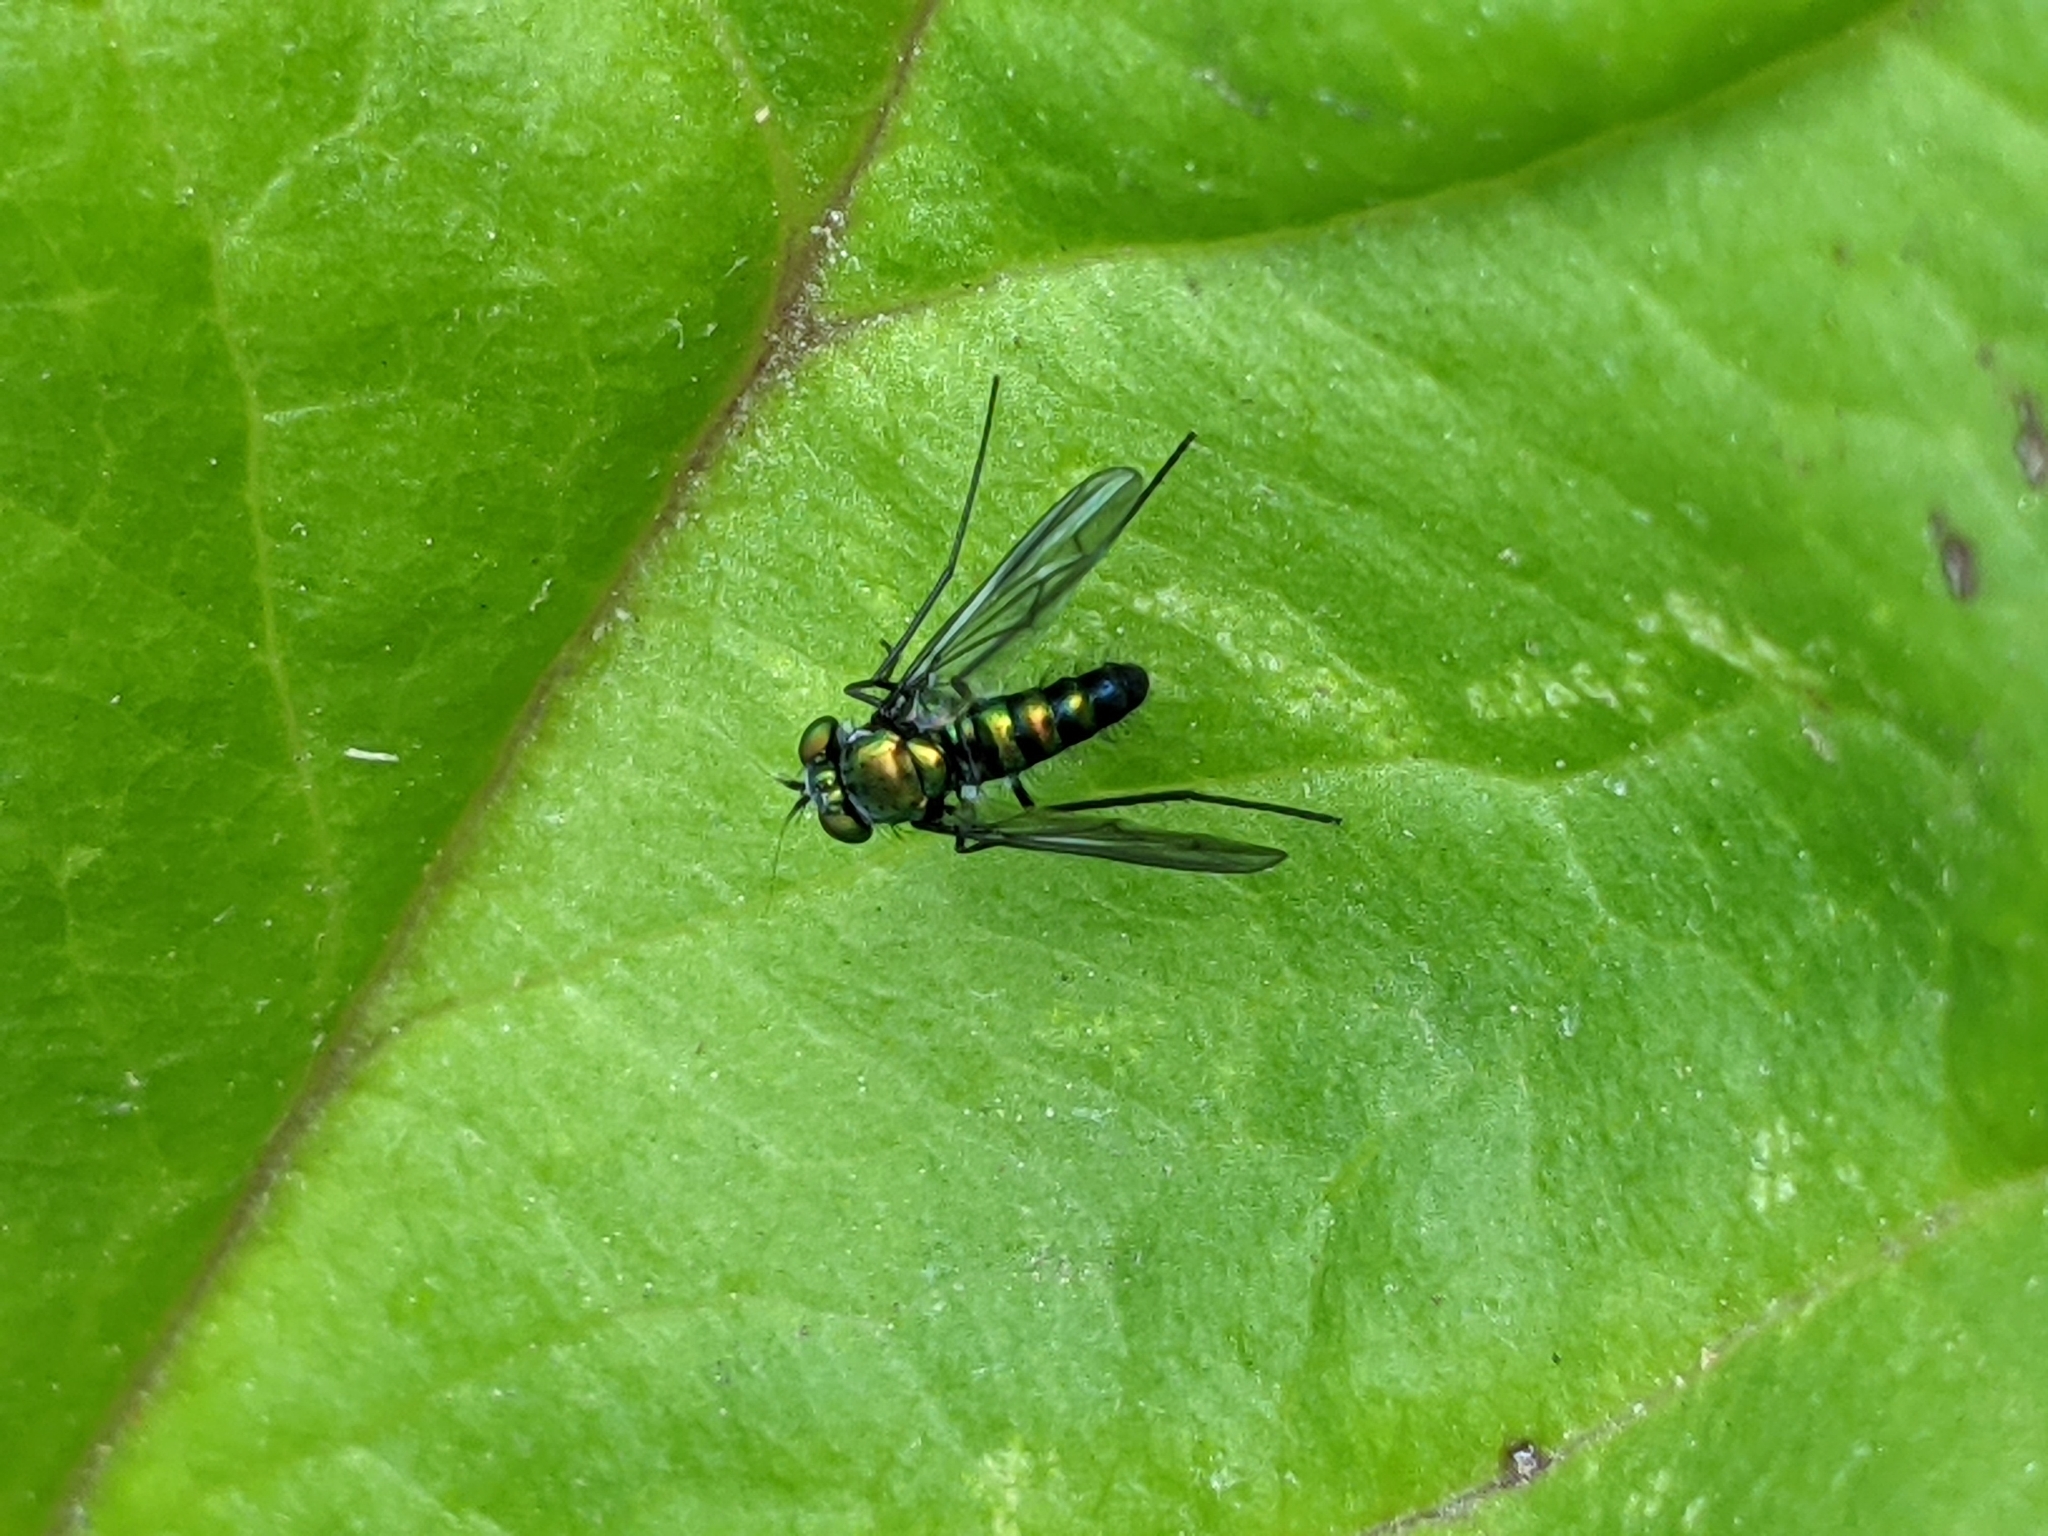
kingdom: Animalia
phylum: Arthropoda
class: Insecta
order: Diptera
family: Dolichopodidae
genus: Condylostylus
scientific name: Condylostylus patibulatus
